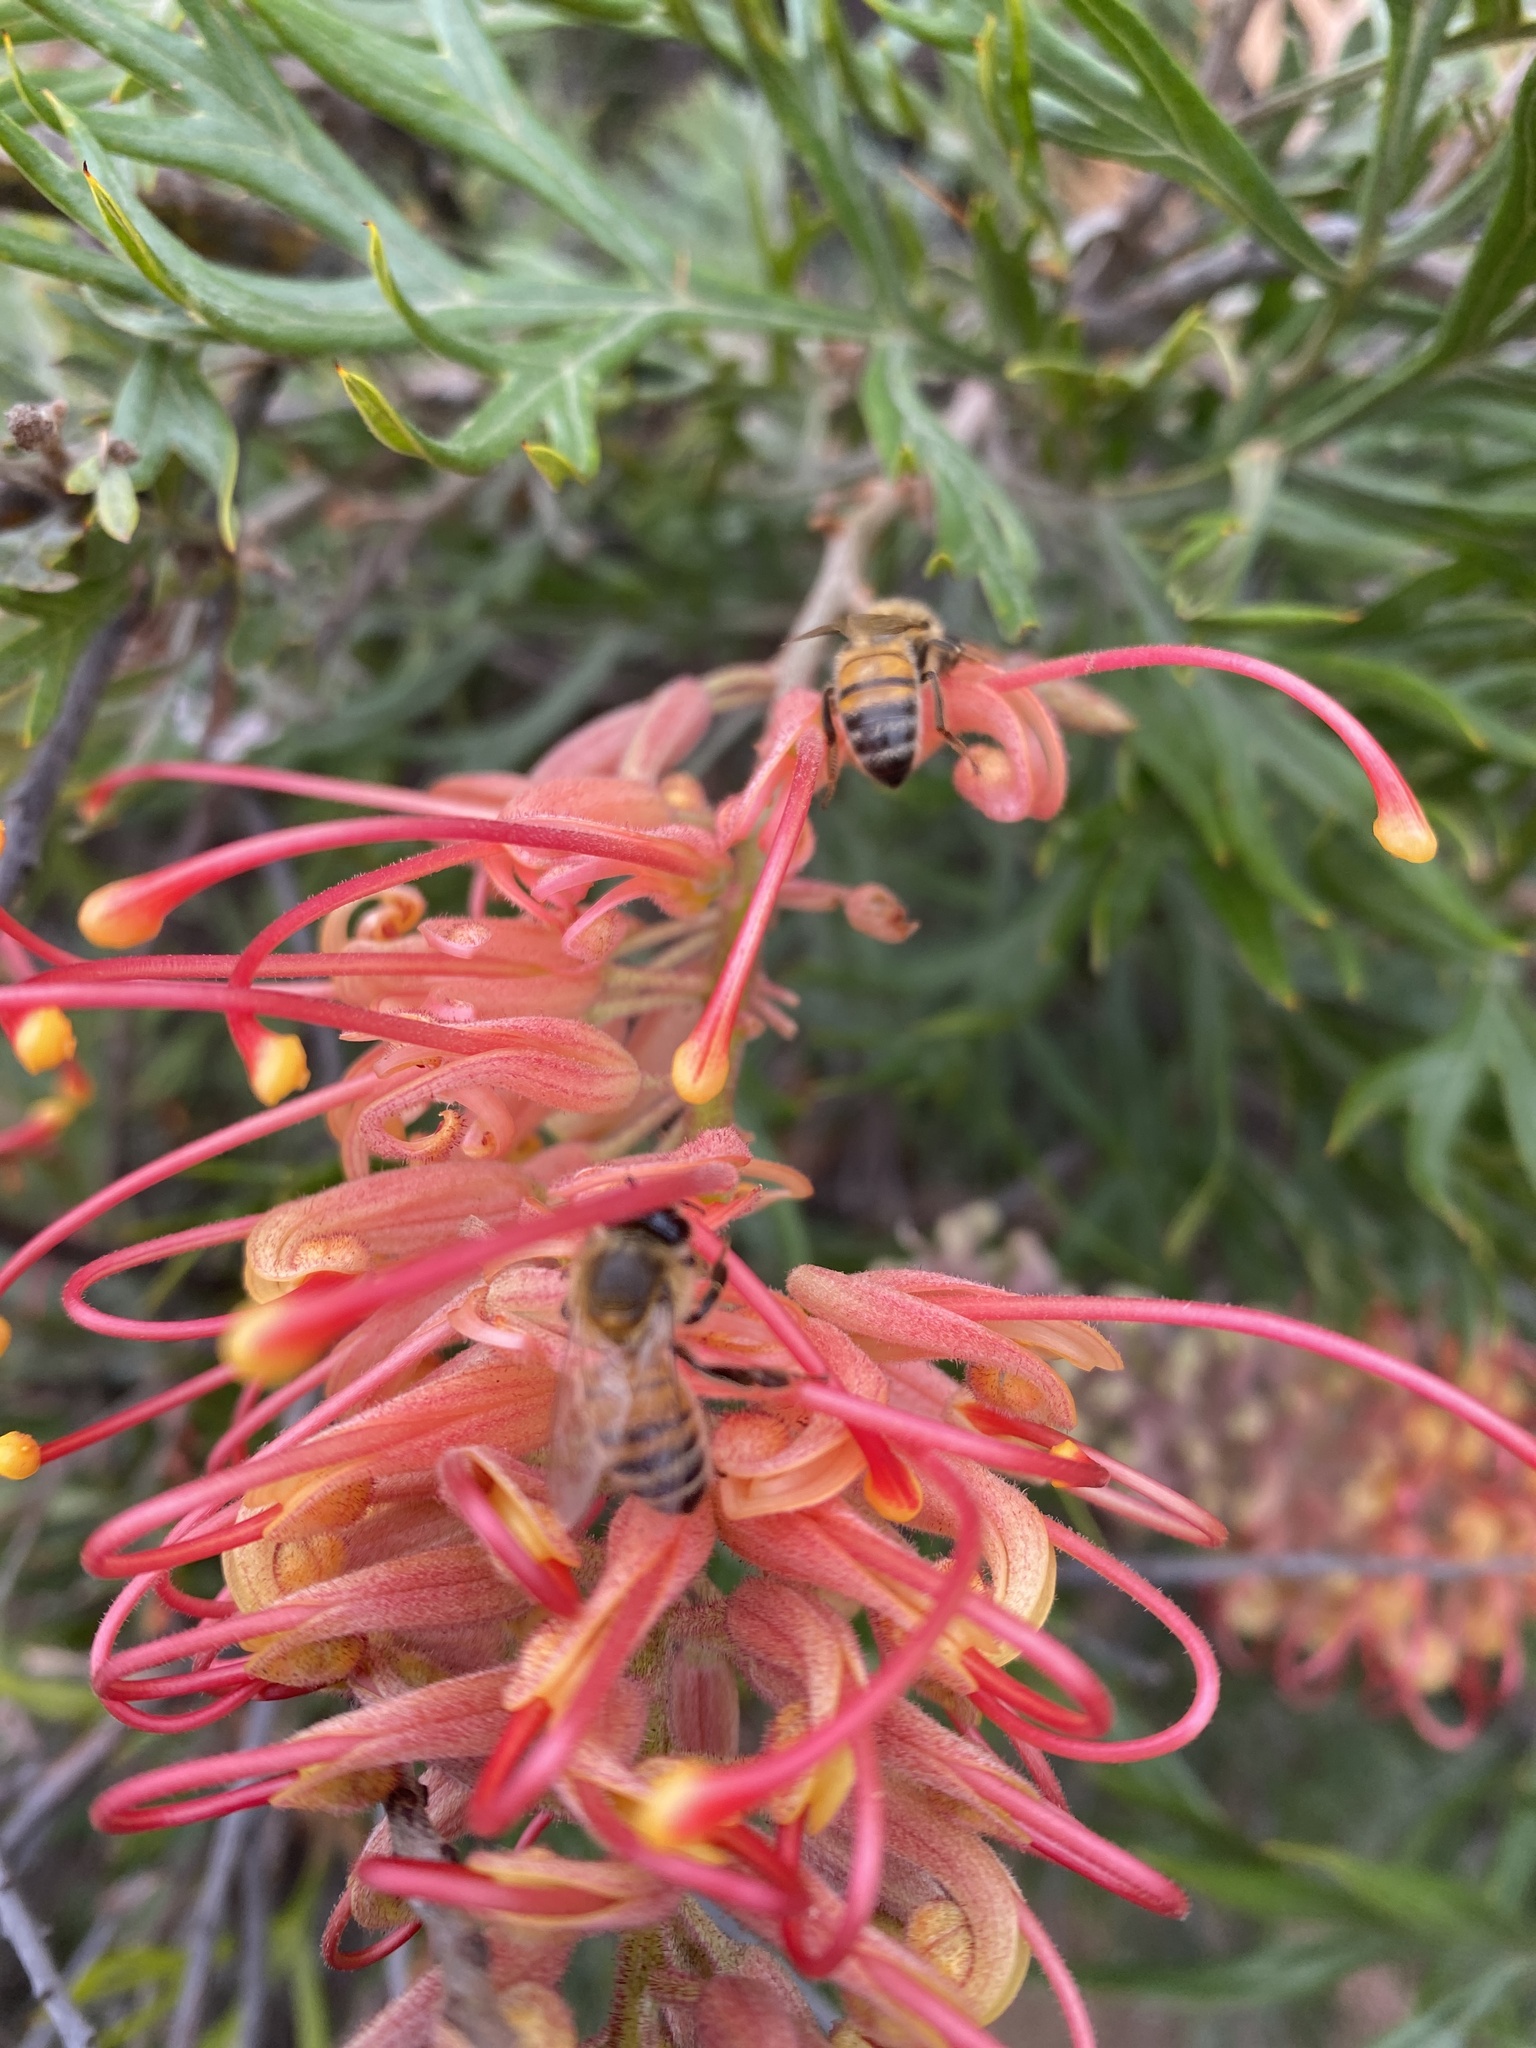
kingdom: Animalia
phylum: Arthropoda
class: Insecta
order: Hymenoptera
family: Apidae
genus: Apis
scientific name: Apis mellifera
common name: Honey bee
